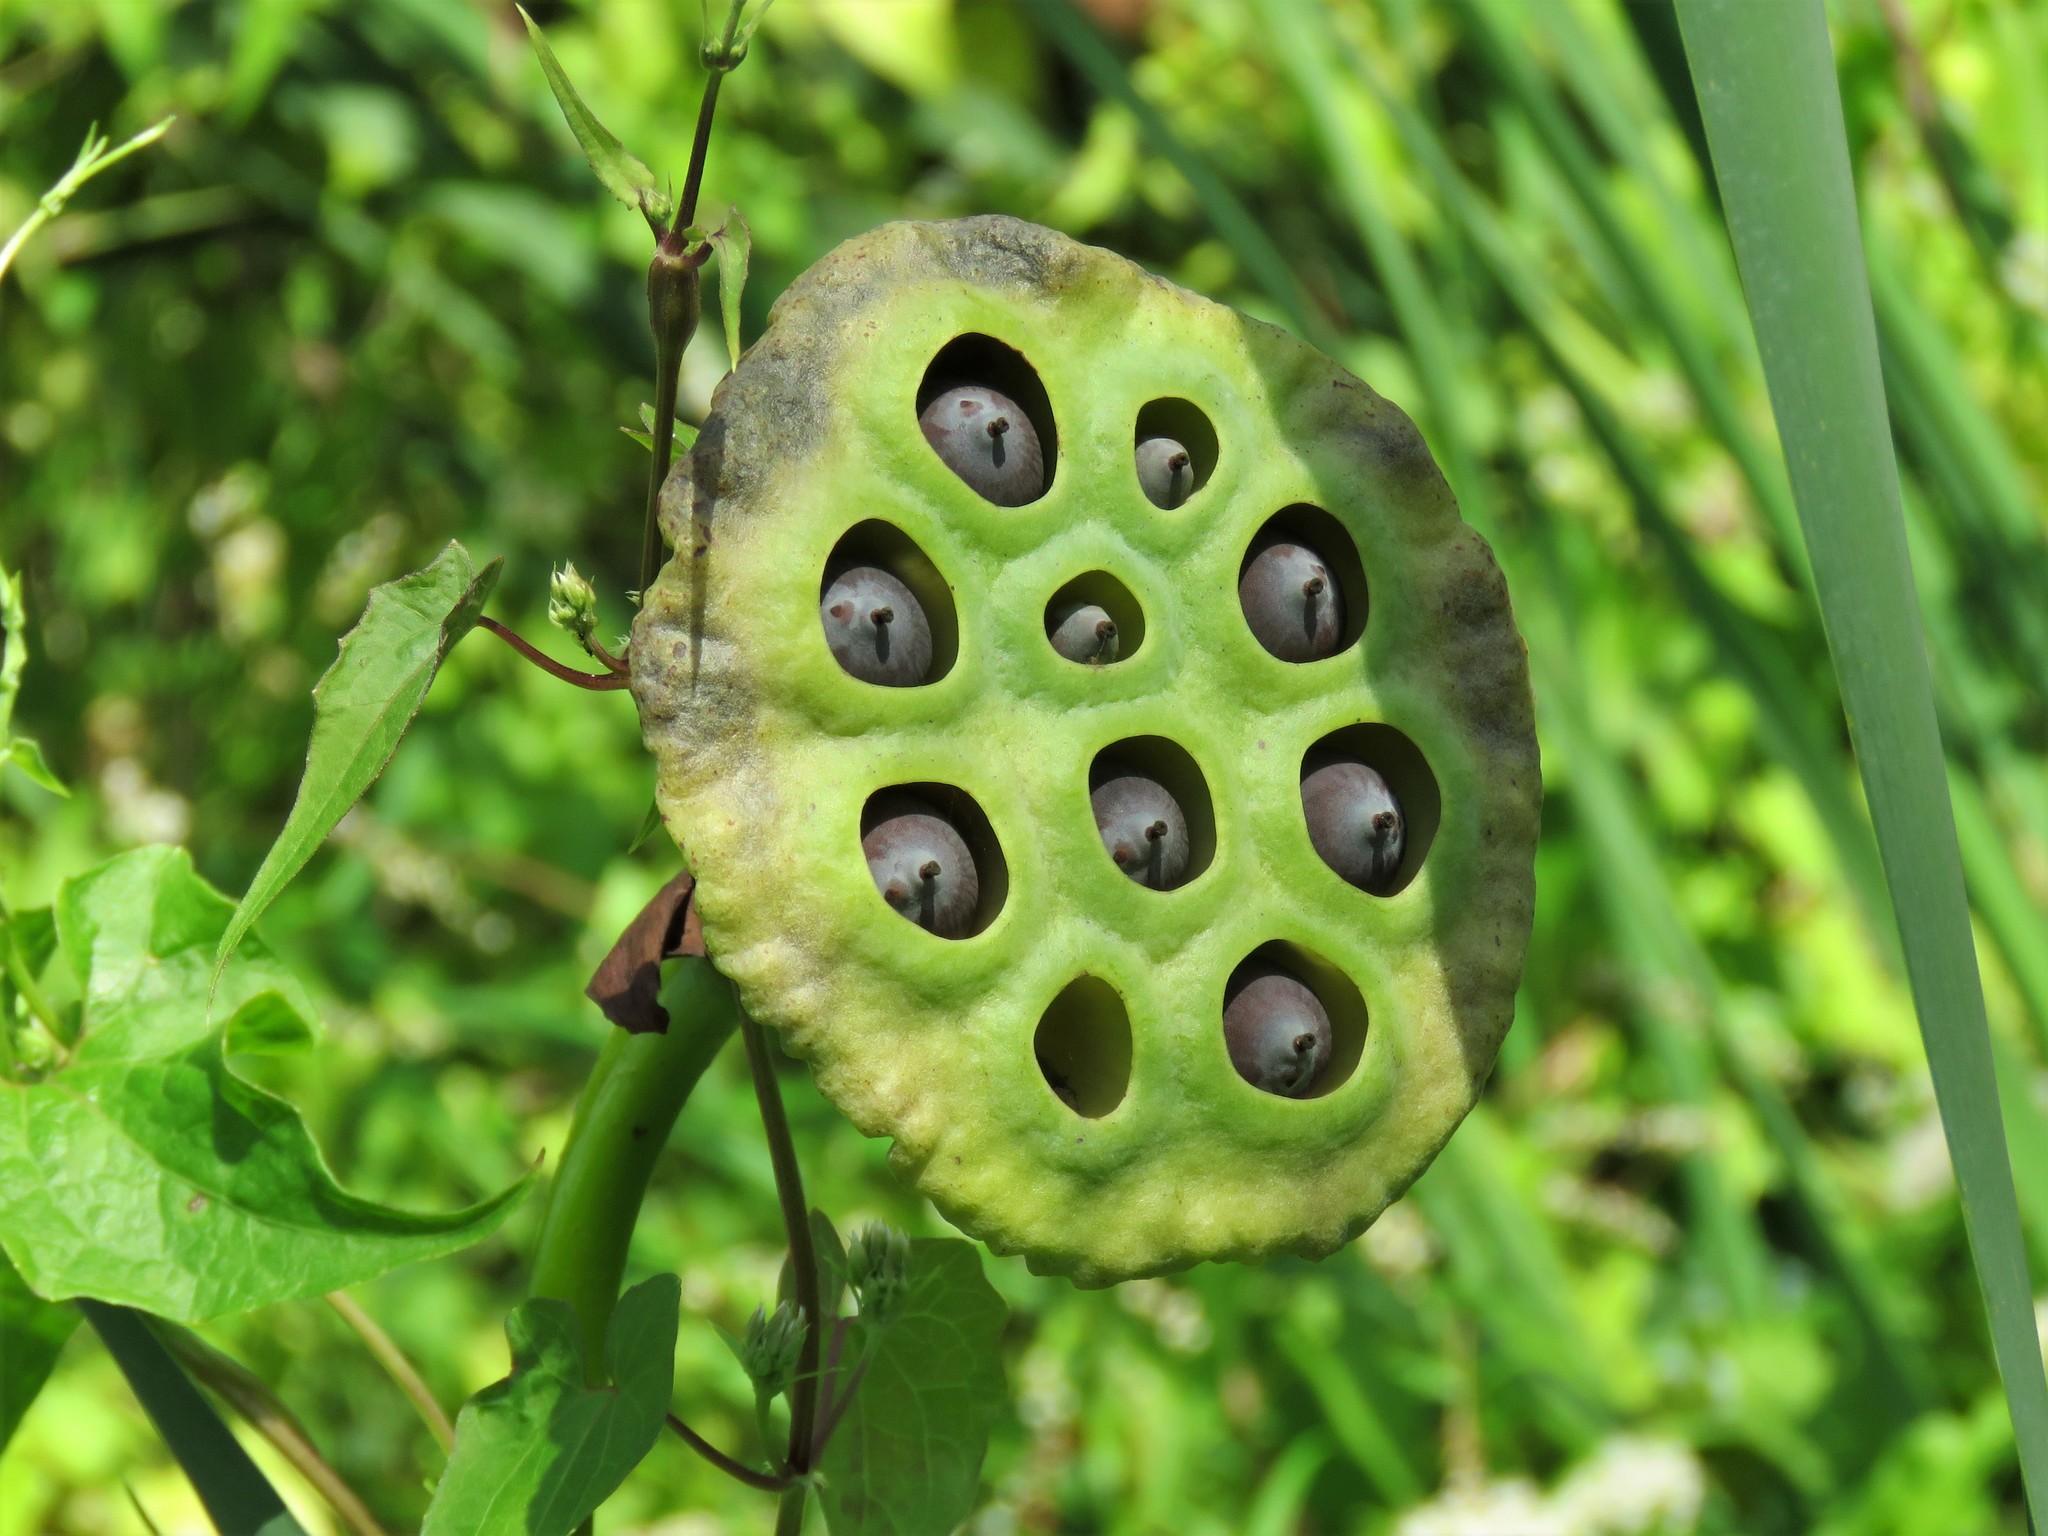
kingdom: Plantae
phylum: Tracheophyta
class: Magnoliopsida
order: Proteales
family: Nelumbonaceae
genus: Nelumbo
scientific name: Nelumbo lutea
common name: American lotus
